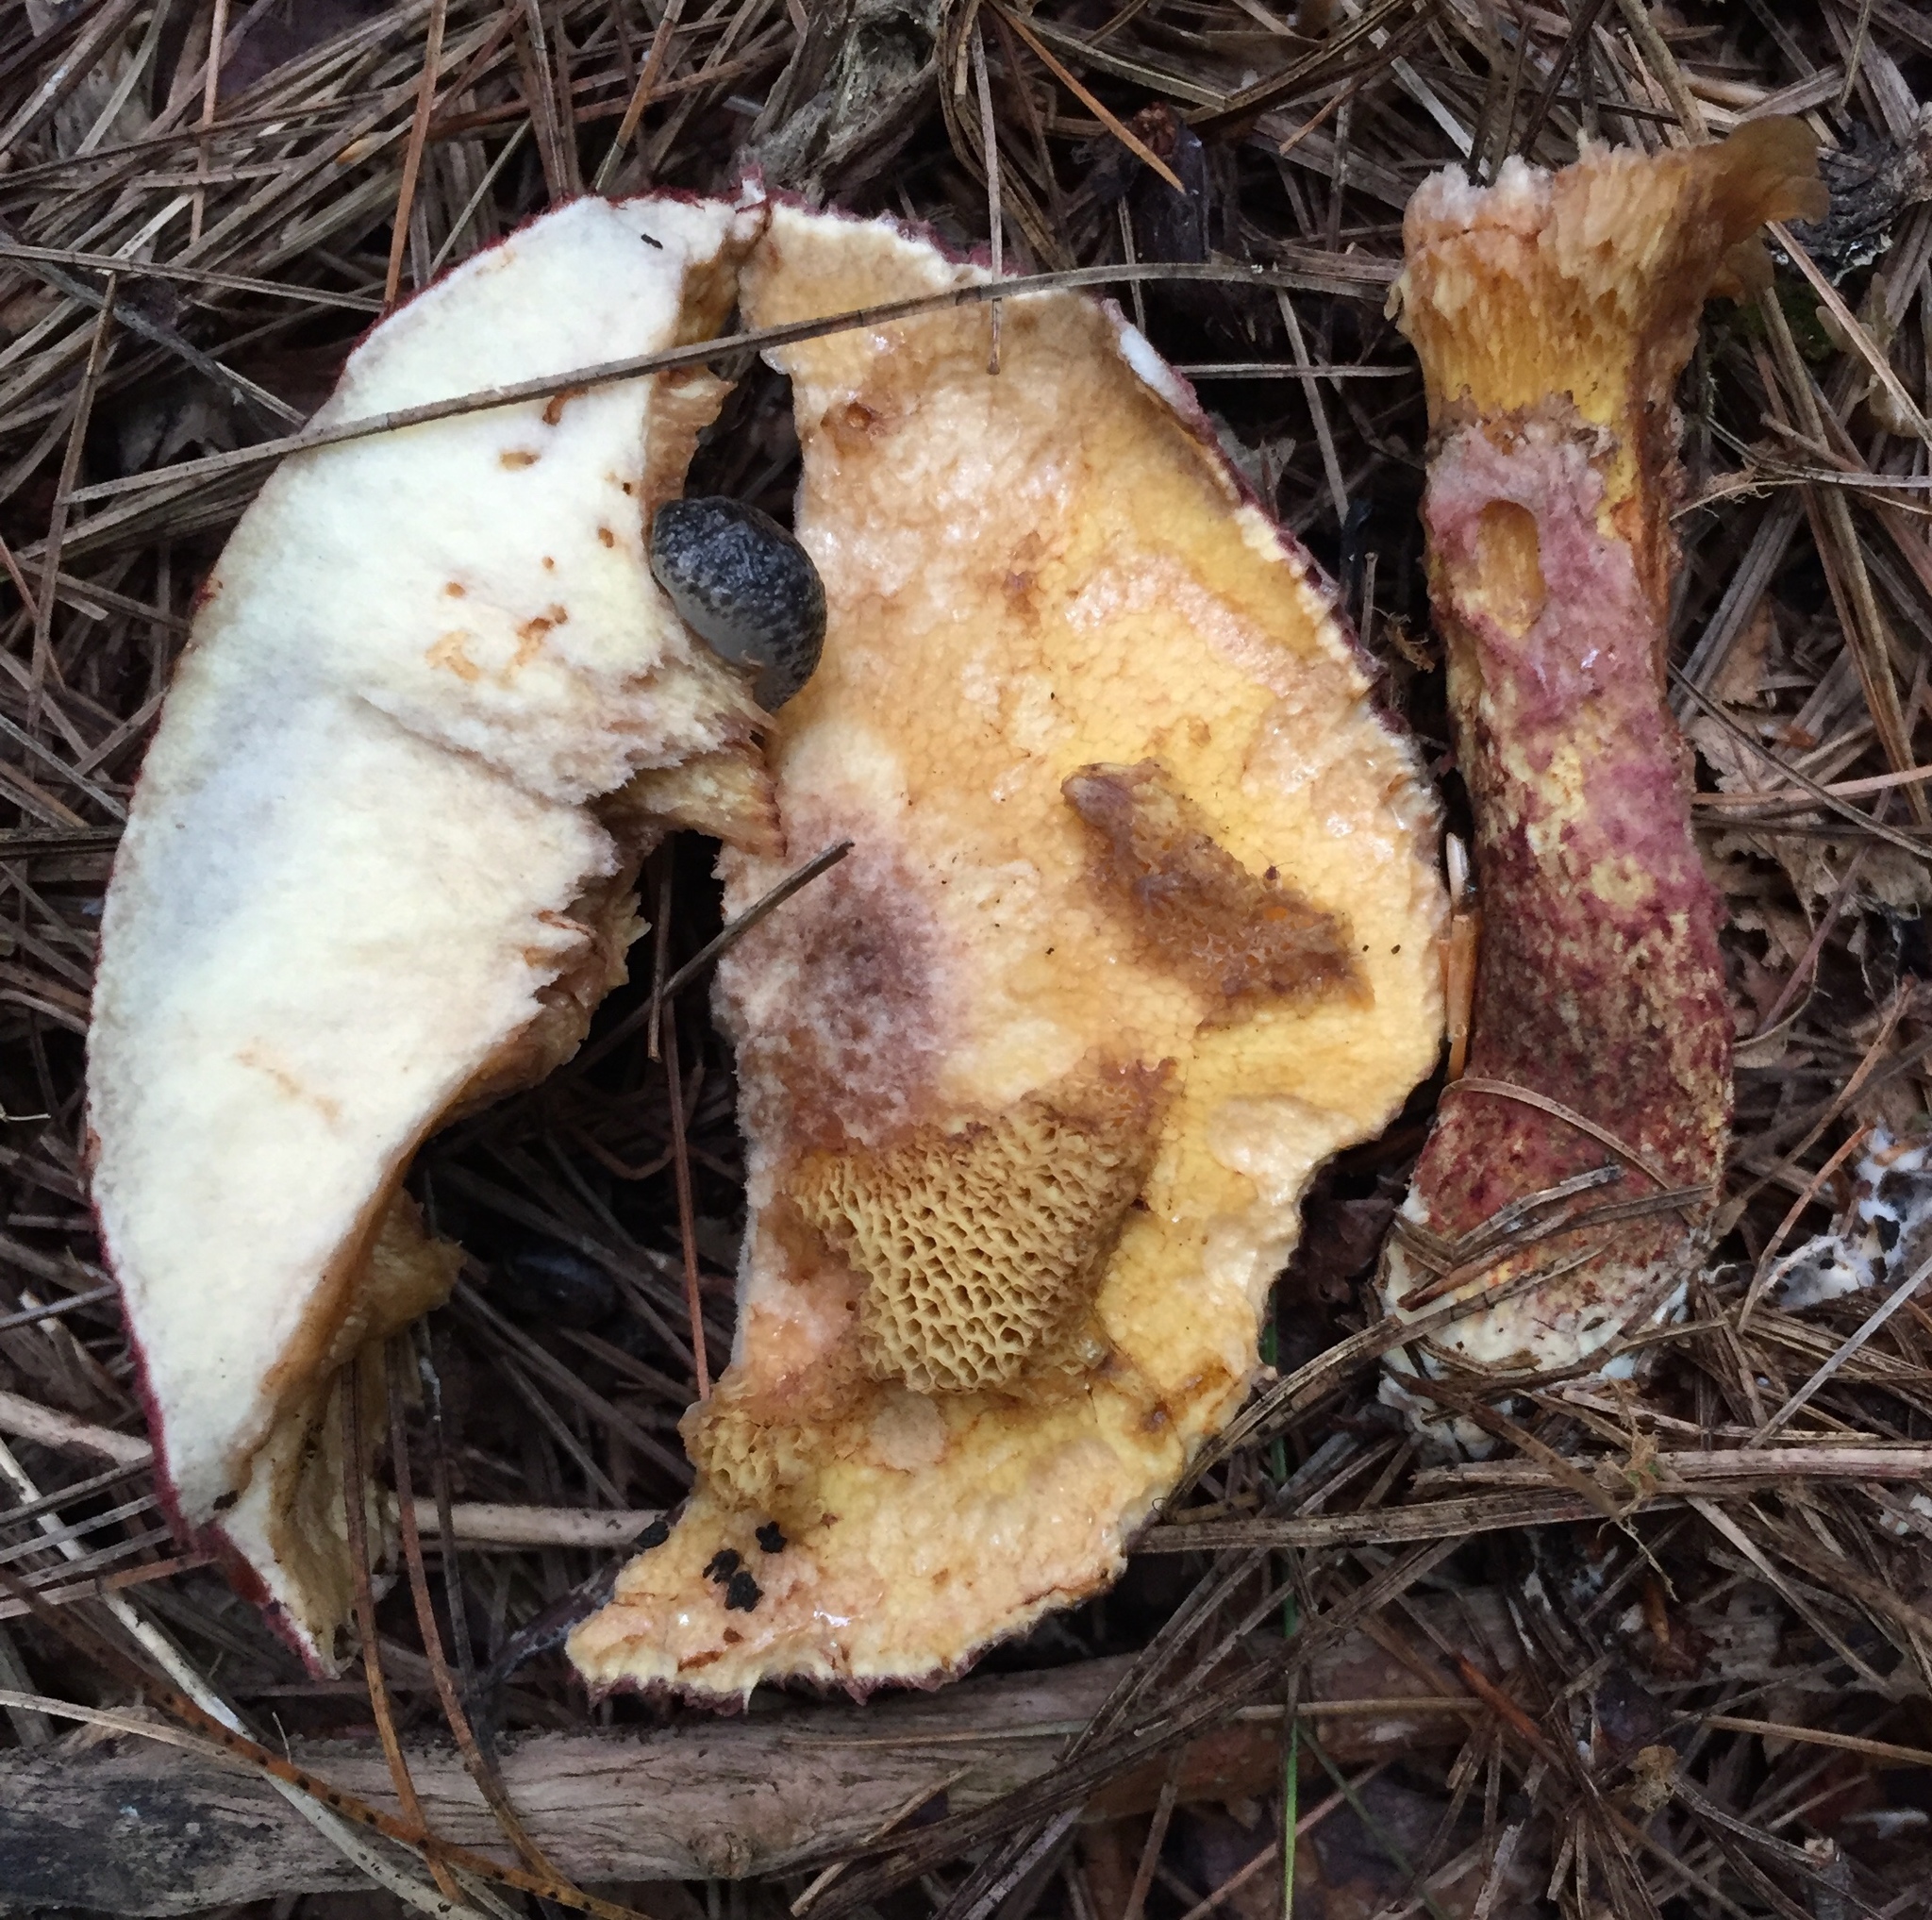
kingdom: Fungi
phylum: Basidiomycota
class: Agaricomycetes
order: Boletales
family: Suillaceae
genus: Suillus
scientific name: Suillus spraguei
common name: Painted suillus
